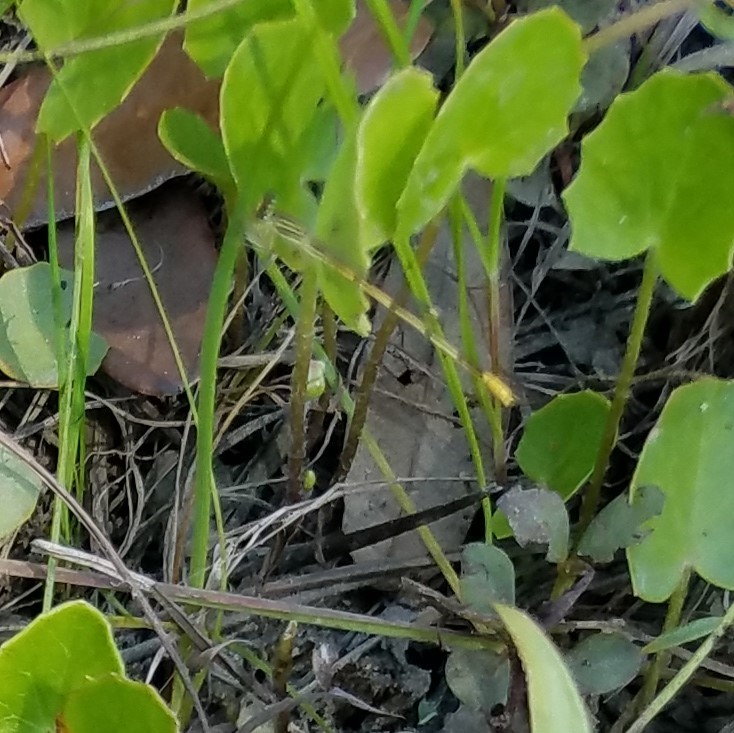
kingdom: Animalia
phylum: Arthropoda
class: Insecta
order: Odonata
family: Coenagrionidae
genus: Ischnura
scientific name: Ischnura hastata
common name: Citrine forktail
